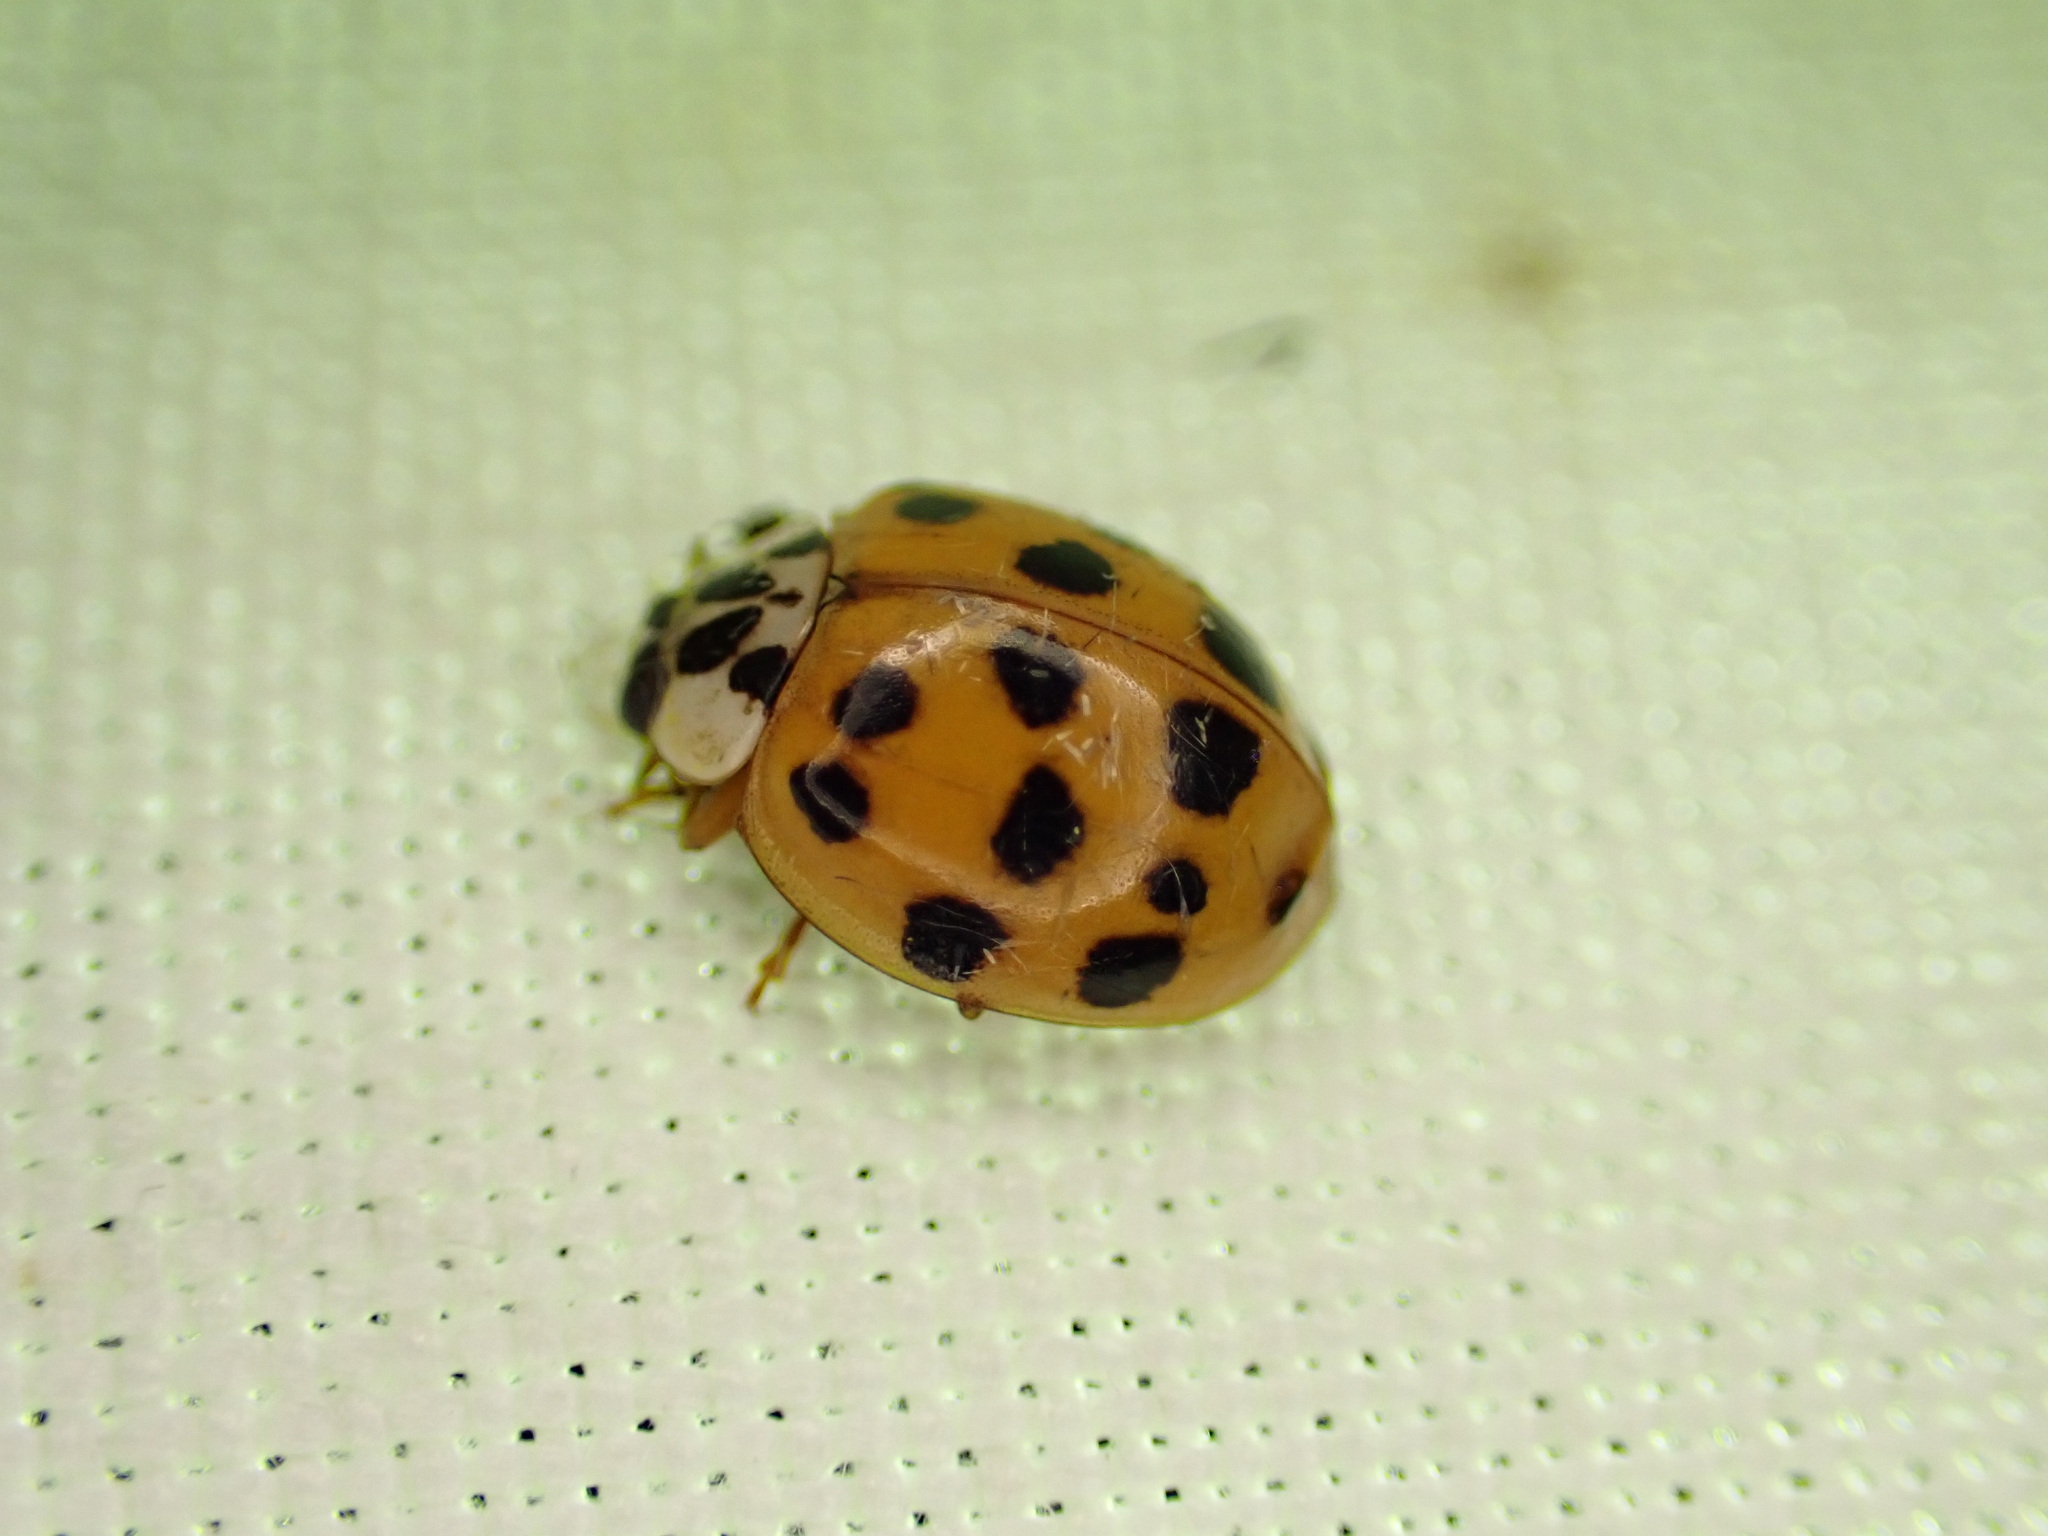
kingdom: Animalia
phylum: Arthropoda
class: Insecta
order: Coleoptera
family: Coccinellidae
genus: Harmonia
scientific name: Harmonia axyridis
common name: Harlequin ladybird
